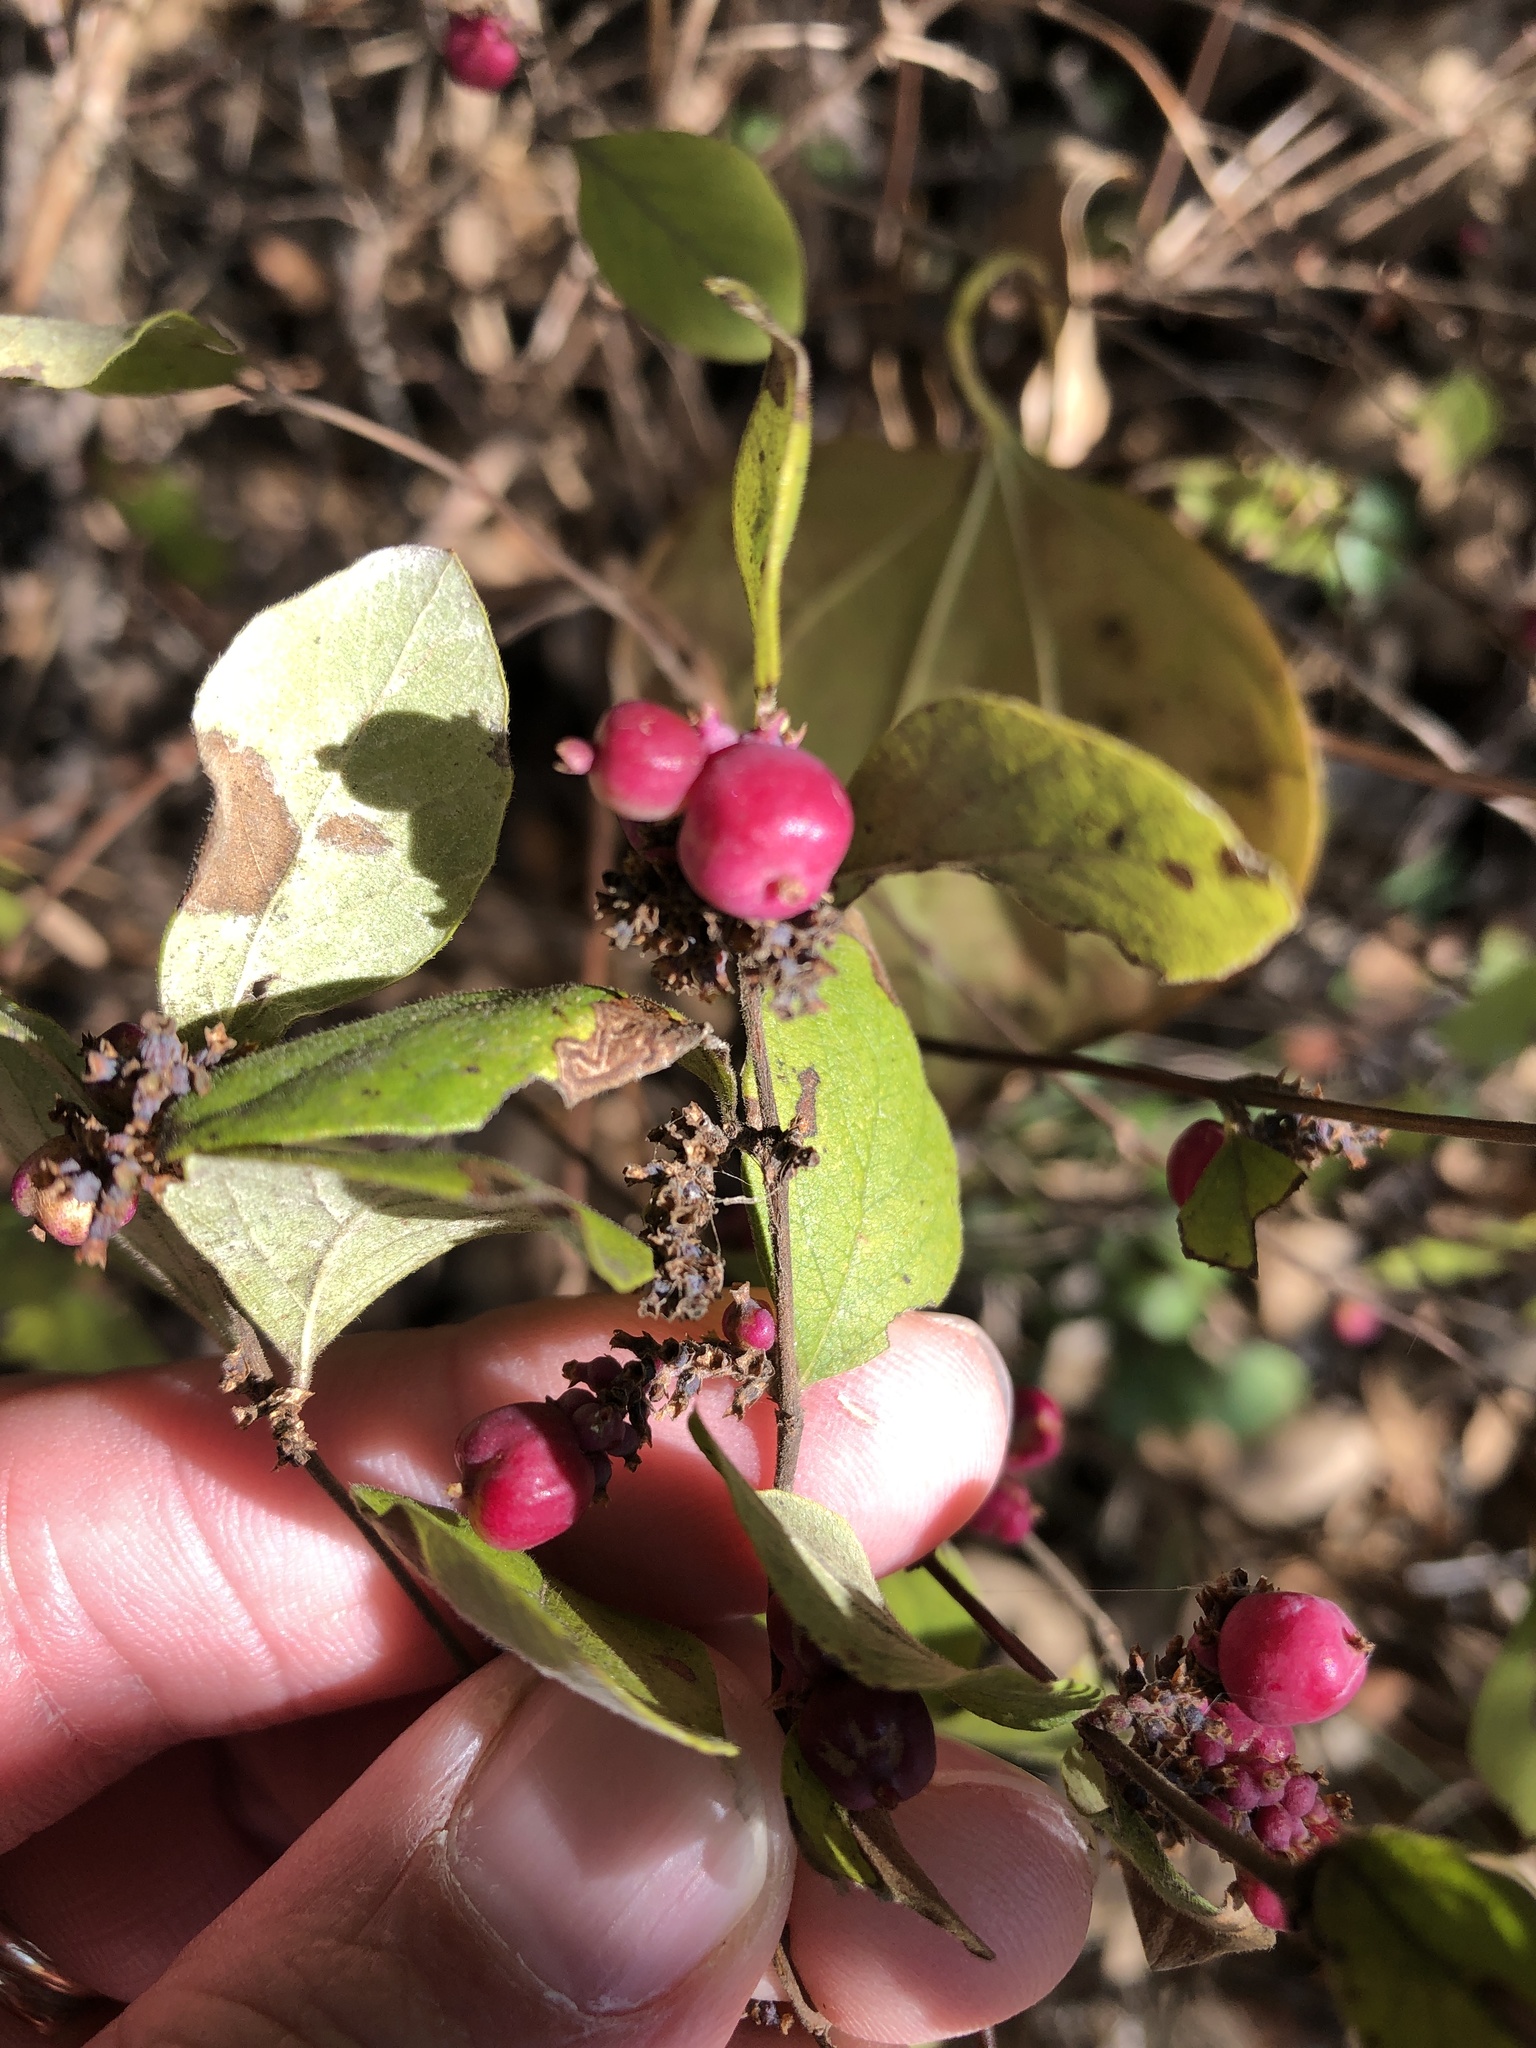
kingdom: Plantae
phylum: Tracheophyta
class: Magnoliopsida
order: Dipsacales
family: Caprifoliaceae
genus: Symphoricarpos
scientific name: Symphoricarpos orbiculatus
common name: Coralberry
